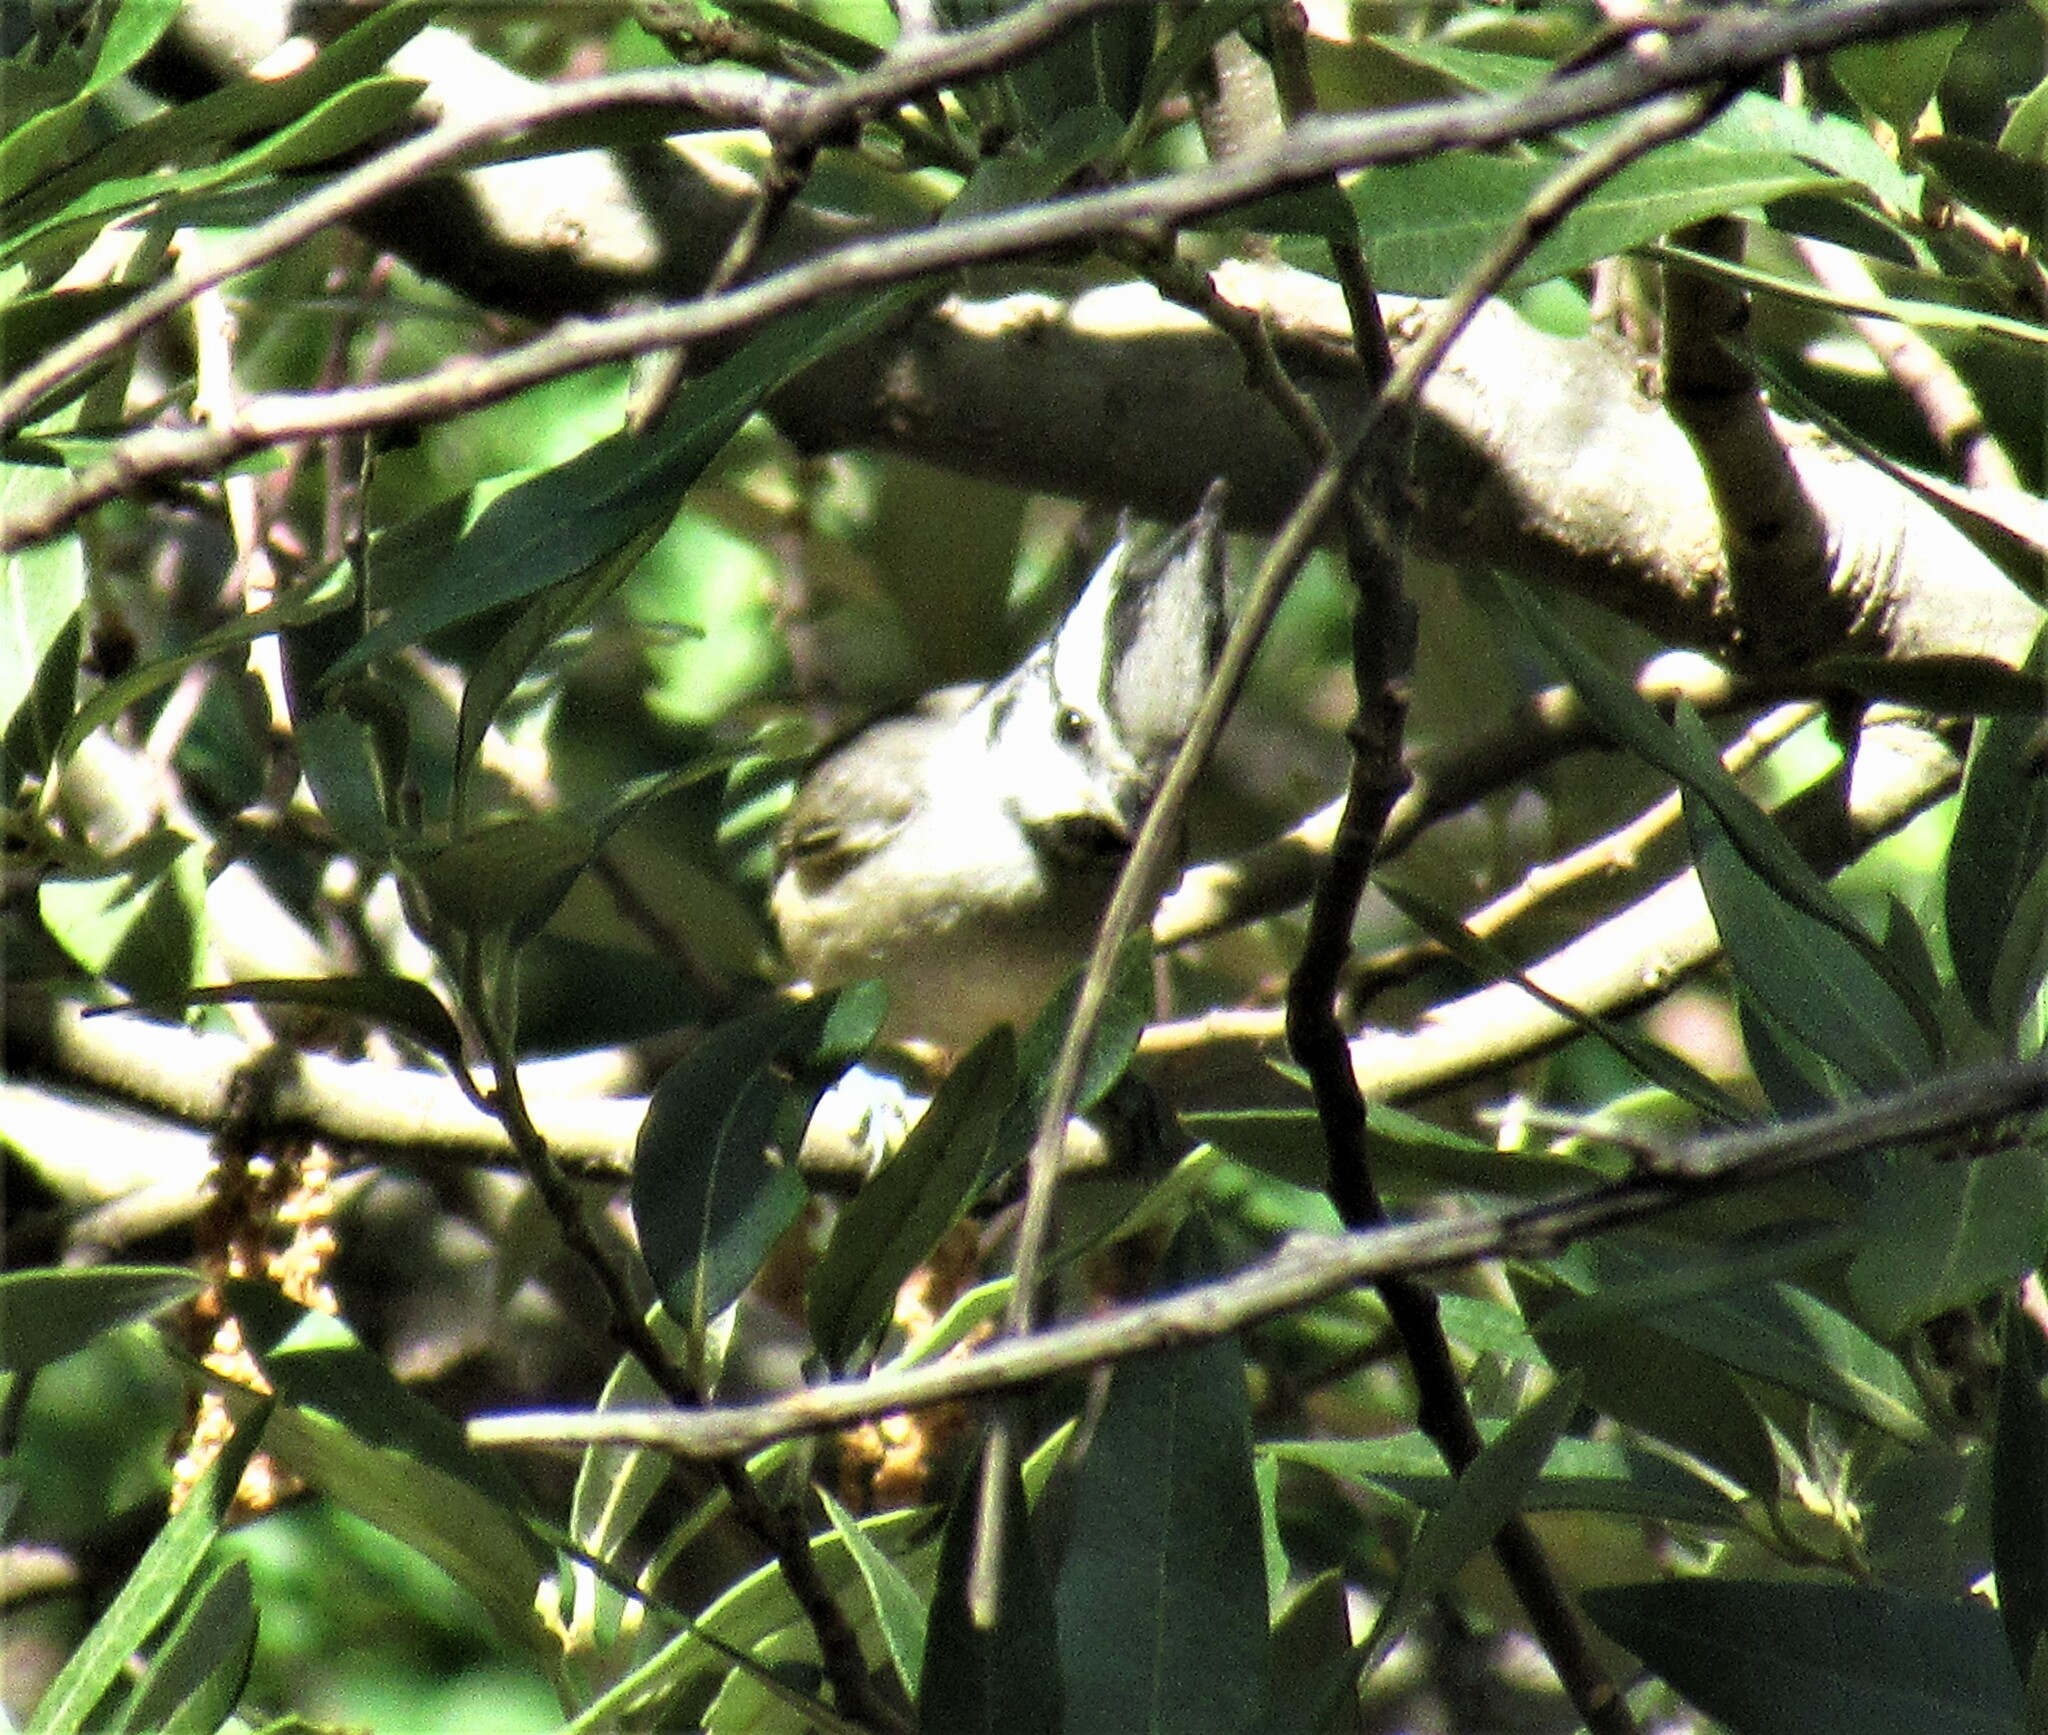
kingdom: Animalia
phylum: Chordata
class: Aves
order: Passeriformes
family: Paridae
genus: Baeolophus
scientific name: Baeolophus wollweberi
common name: Bridled titmouse
